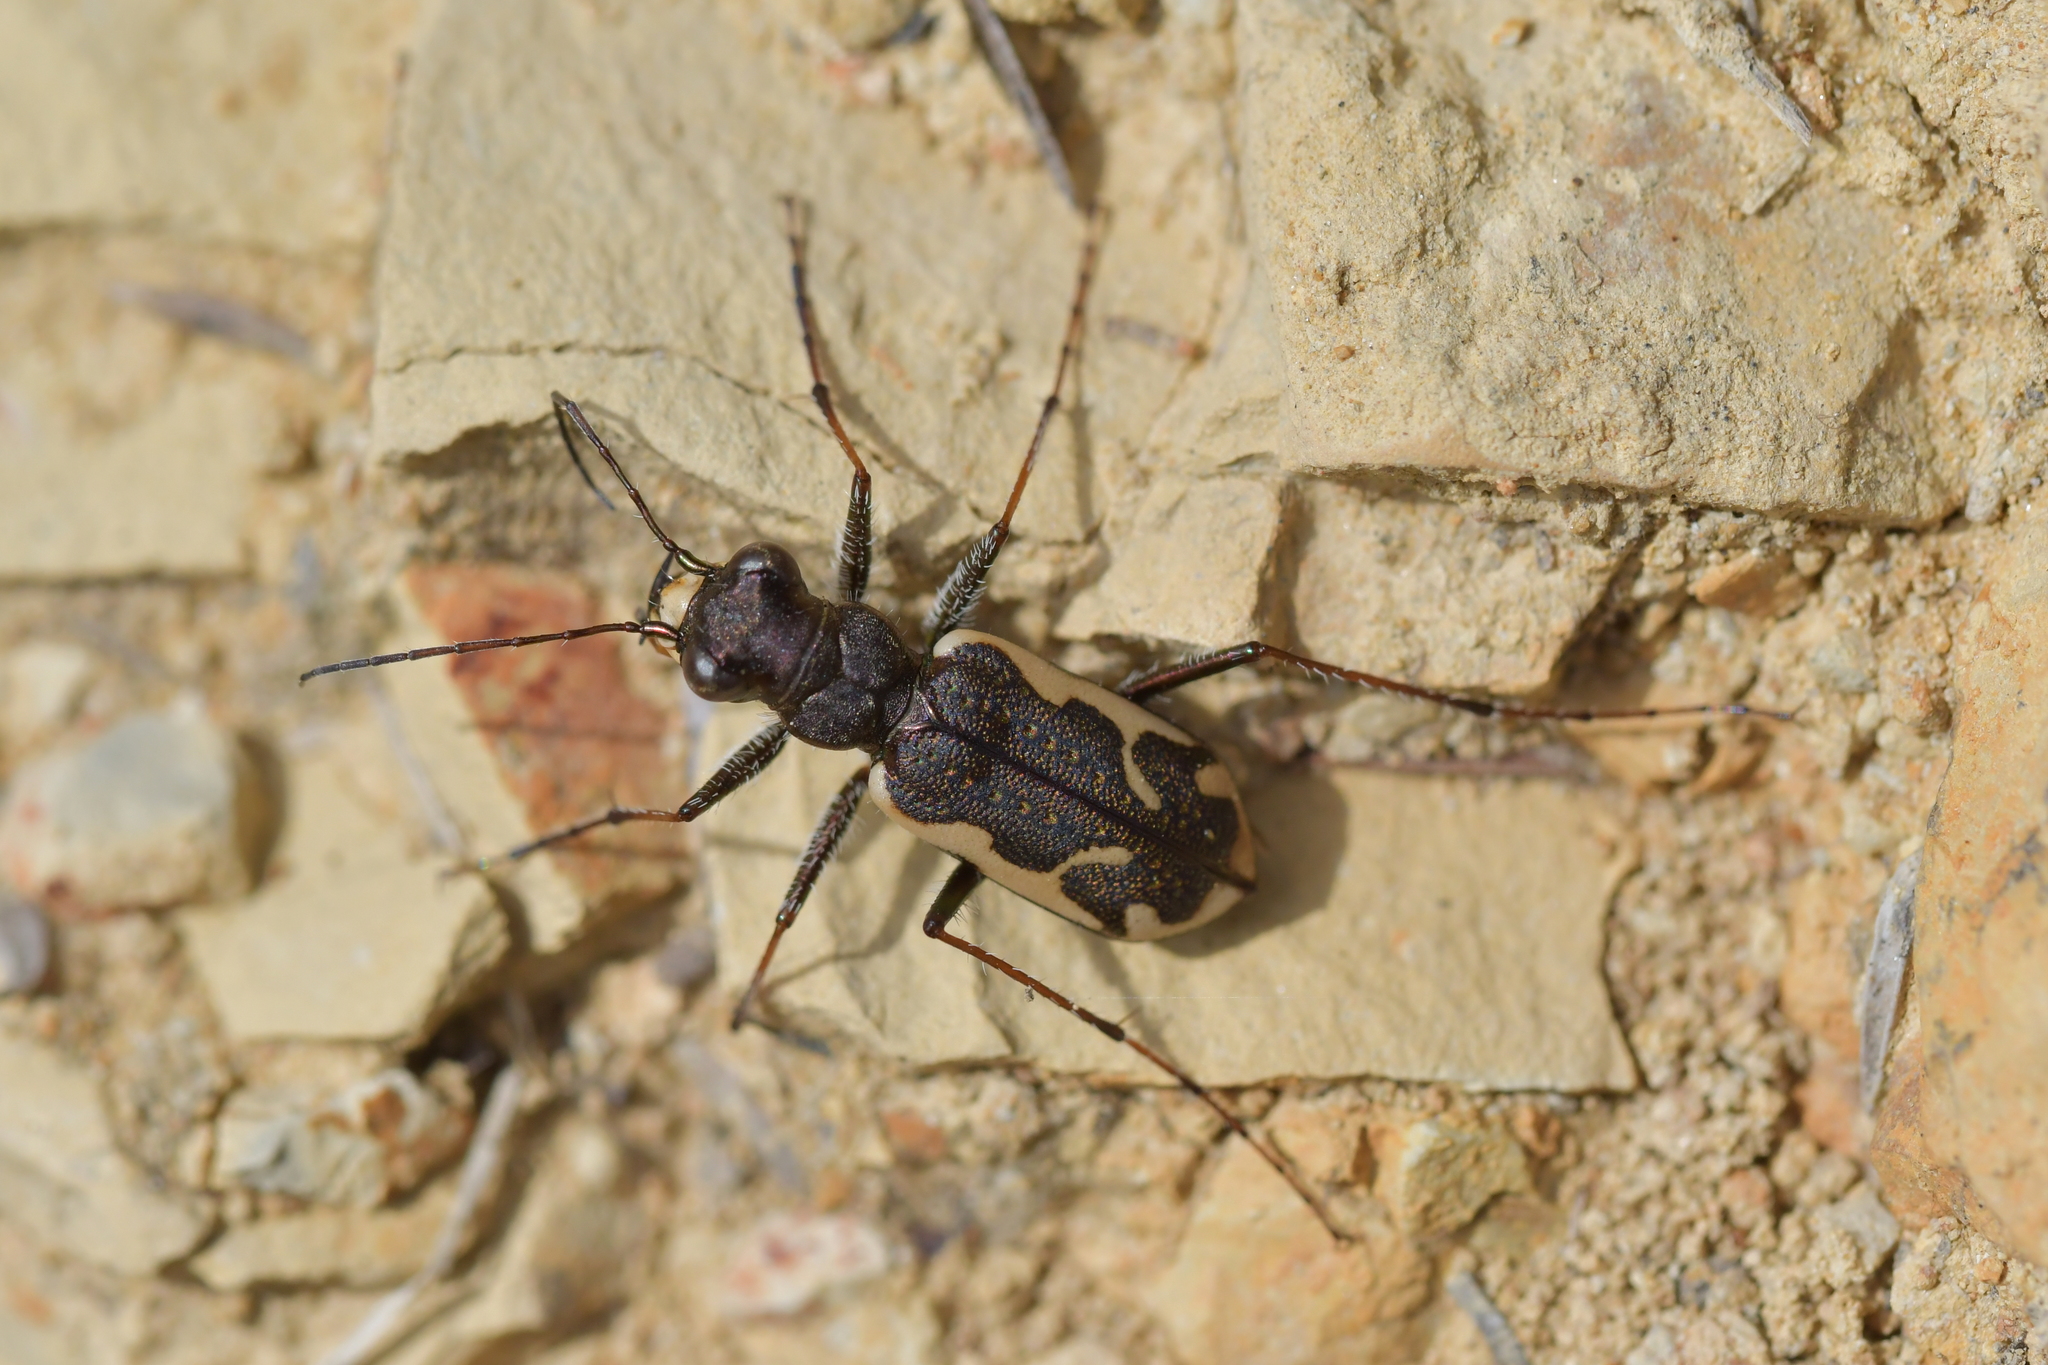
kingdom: Animalia
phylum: Arthropoda
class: Insecta
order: Coleoptera
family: Carabidae
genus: Neocicindela
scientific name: Neocicindela tuberculata
